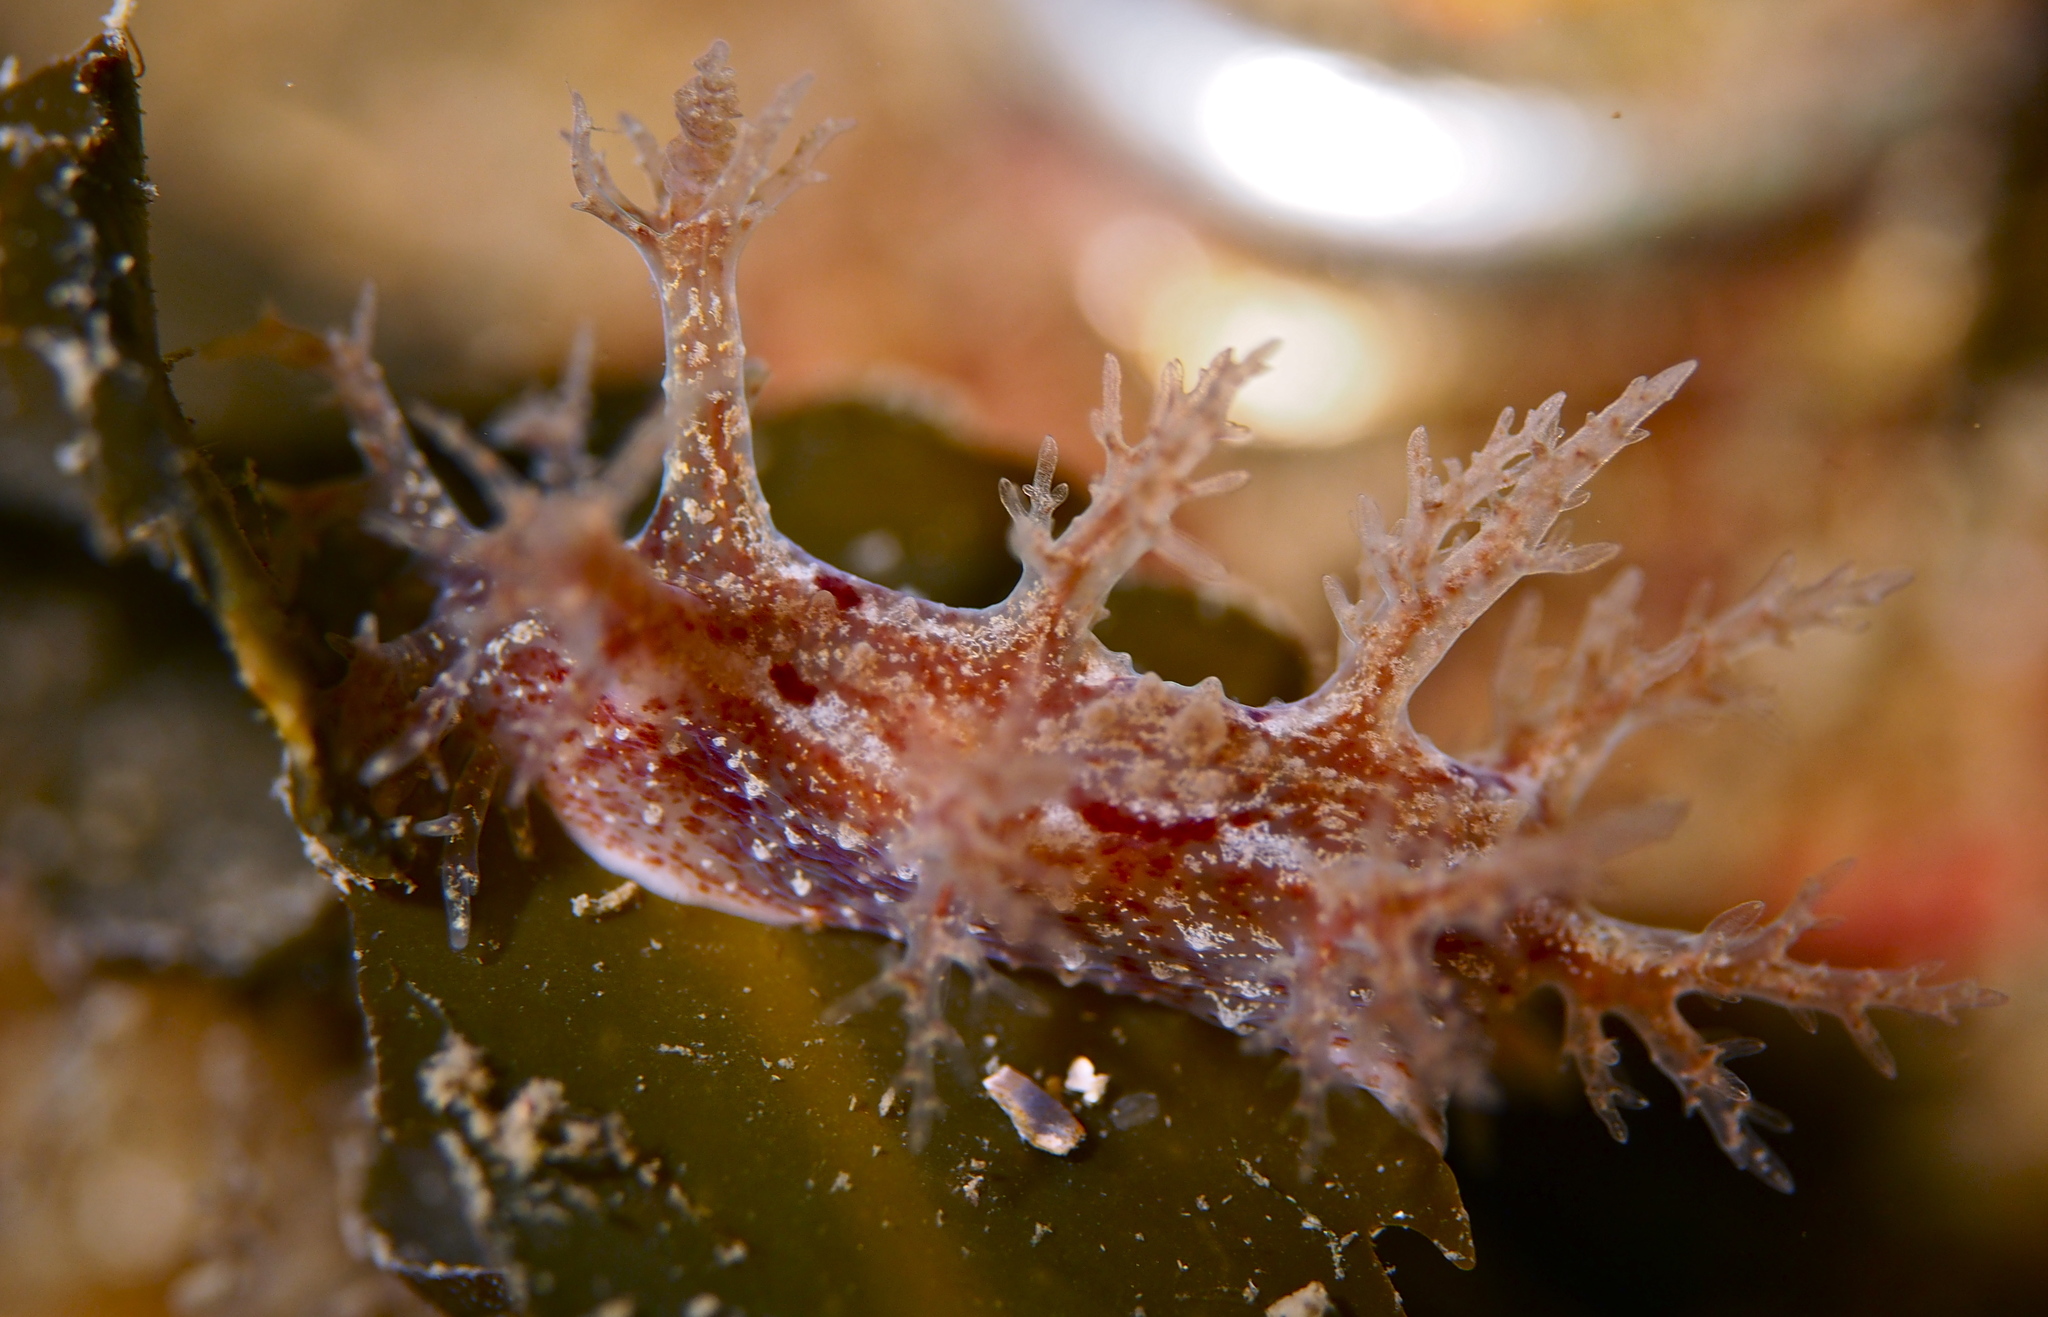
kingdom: Animalia
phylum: Mollusca
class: Gastropoda
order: Nudibranchia
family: Dendronotidae
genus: Dendronotus
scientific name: Dendronotus frondosus
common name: Bushy-backed nudibranch
